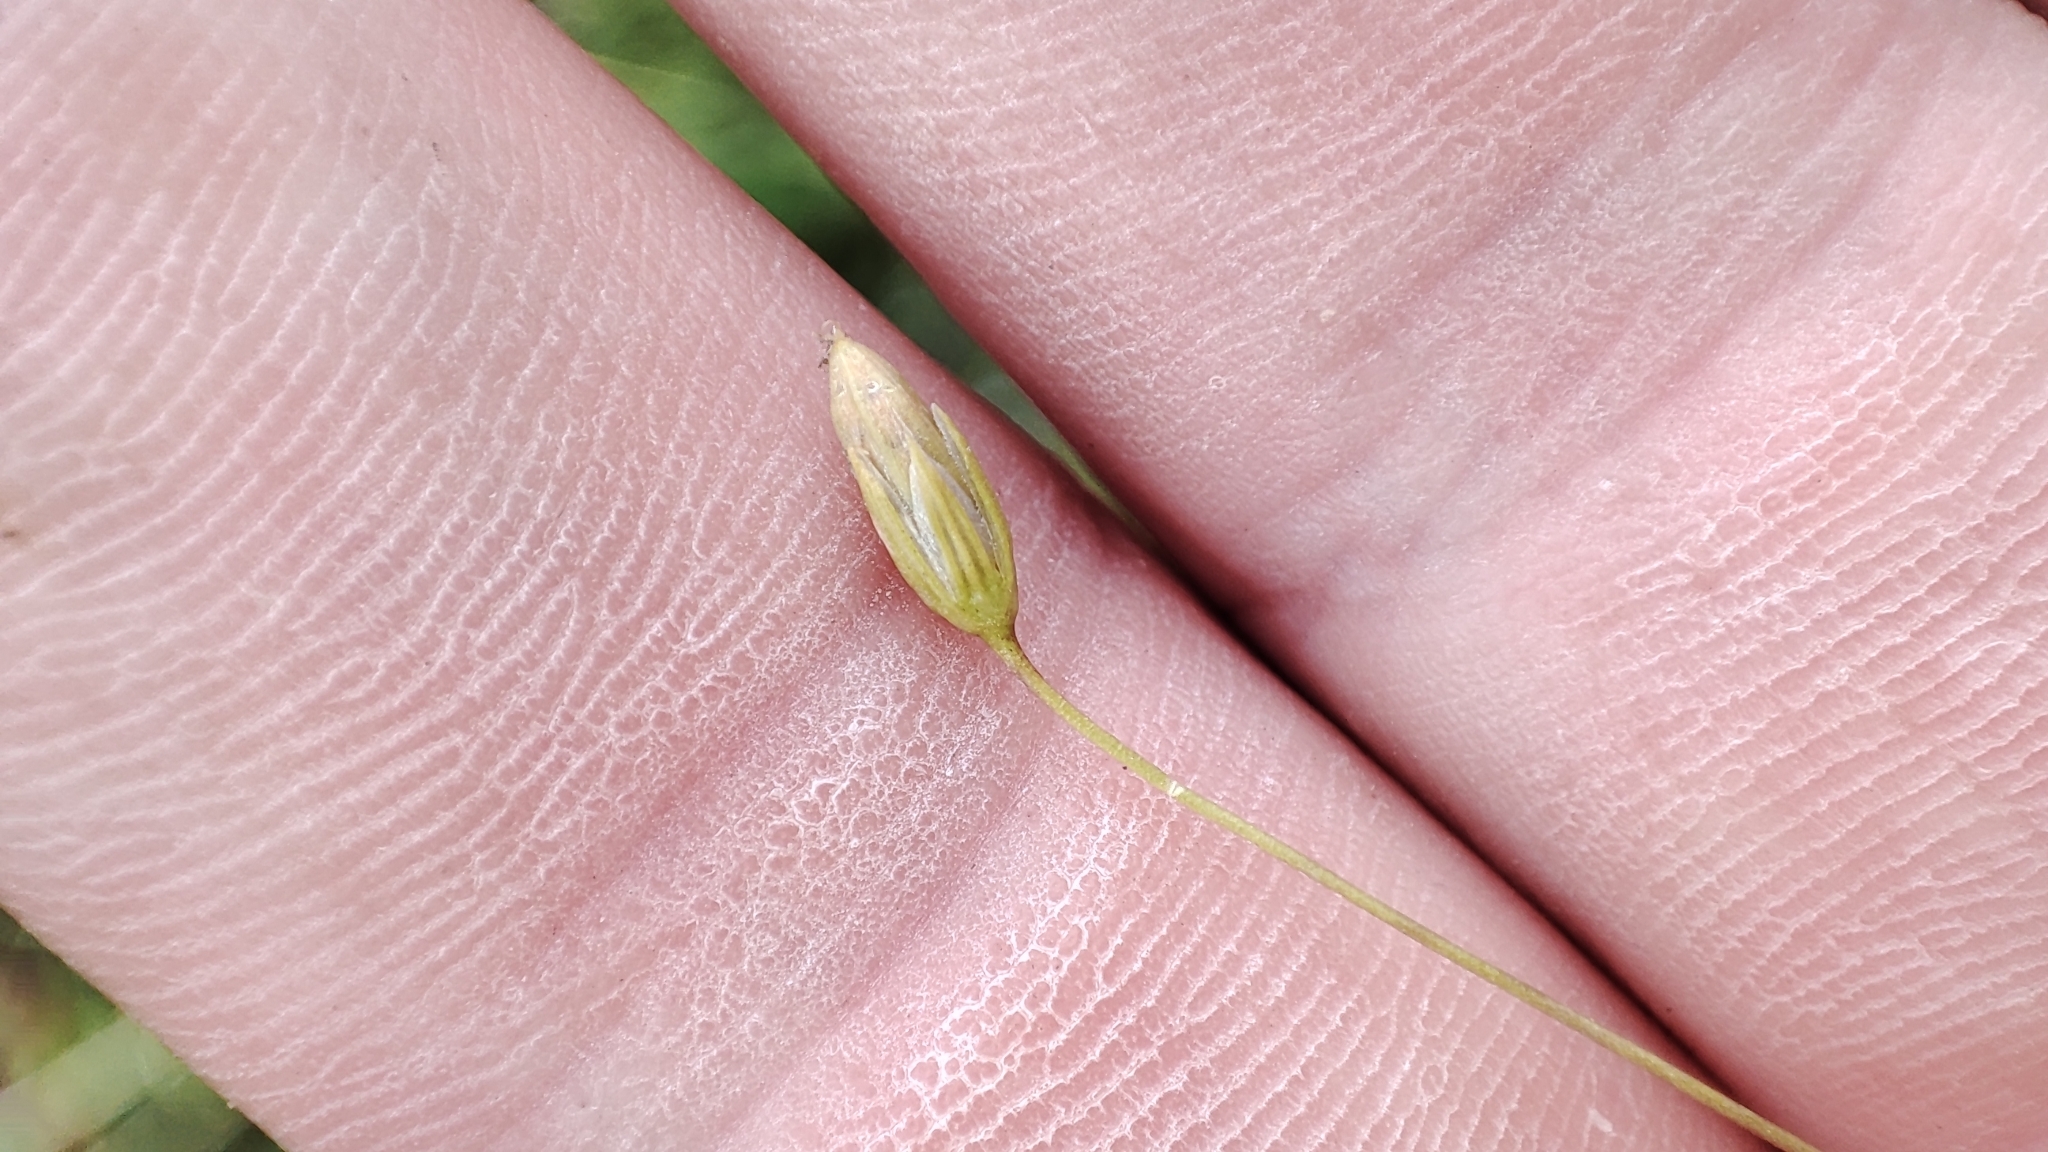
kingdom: Plantae
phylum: Tracheophyta
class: Magnoliopsida
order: Caryophyllales
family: Caryophyllaceae
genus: Stellaria
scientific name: Stellaria graminea
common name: Grass-like starwort
